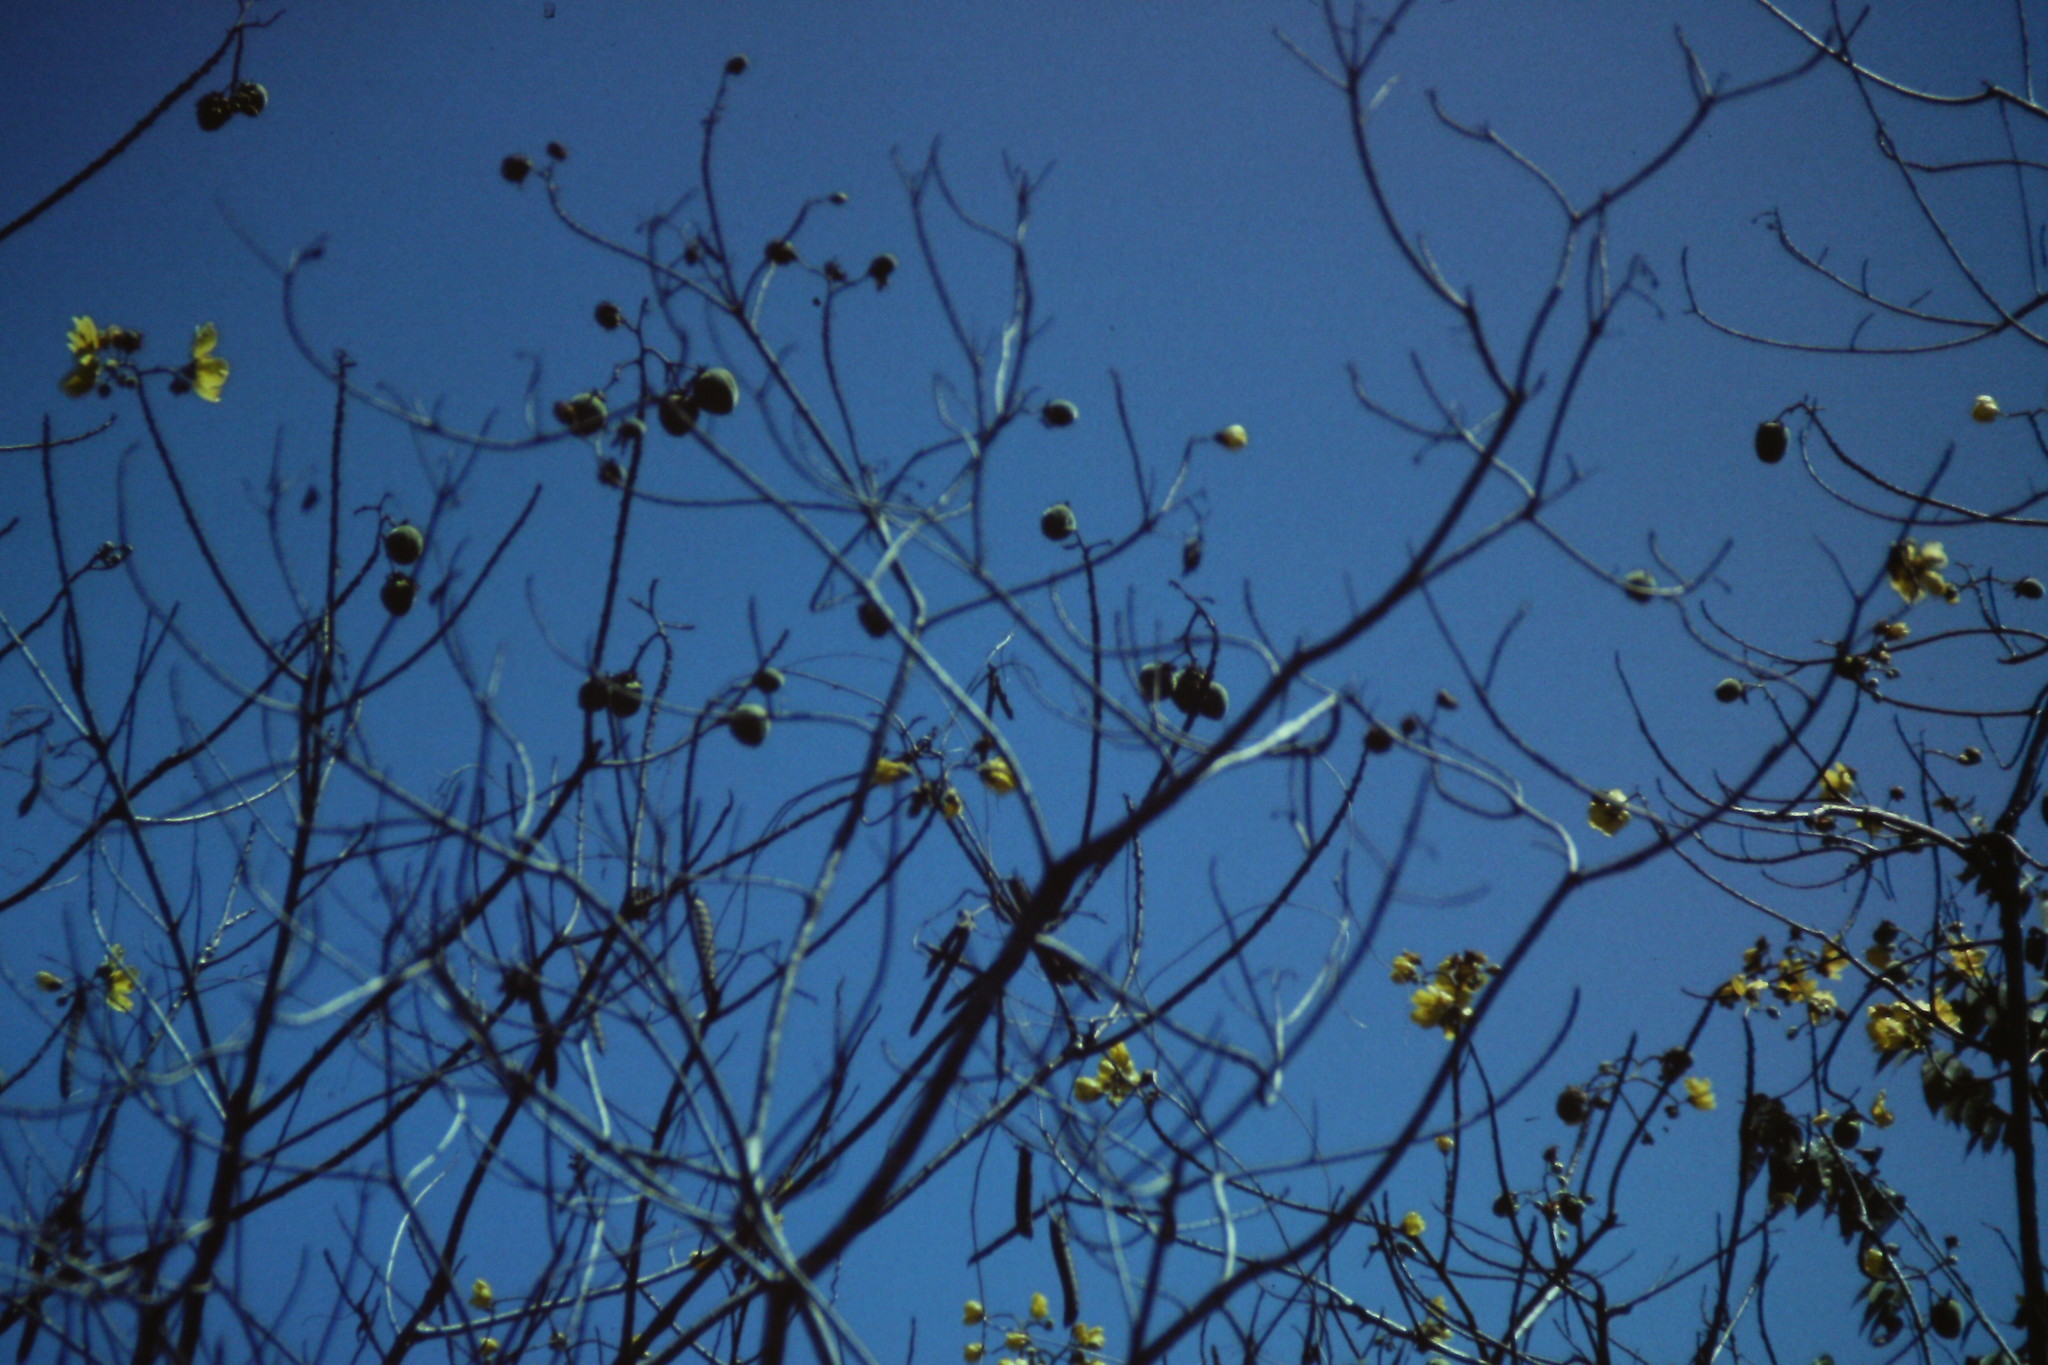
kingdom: Plantae
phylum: Tracheophyta
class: Magnoliopsida
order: Malvales
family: Cochlospermaceae
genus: Cochlospermum
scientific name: Cochlospermum vitifolium
